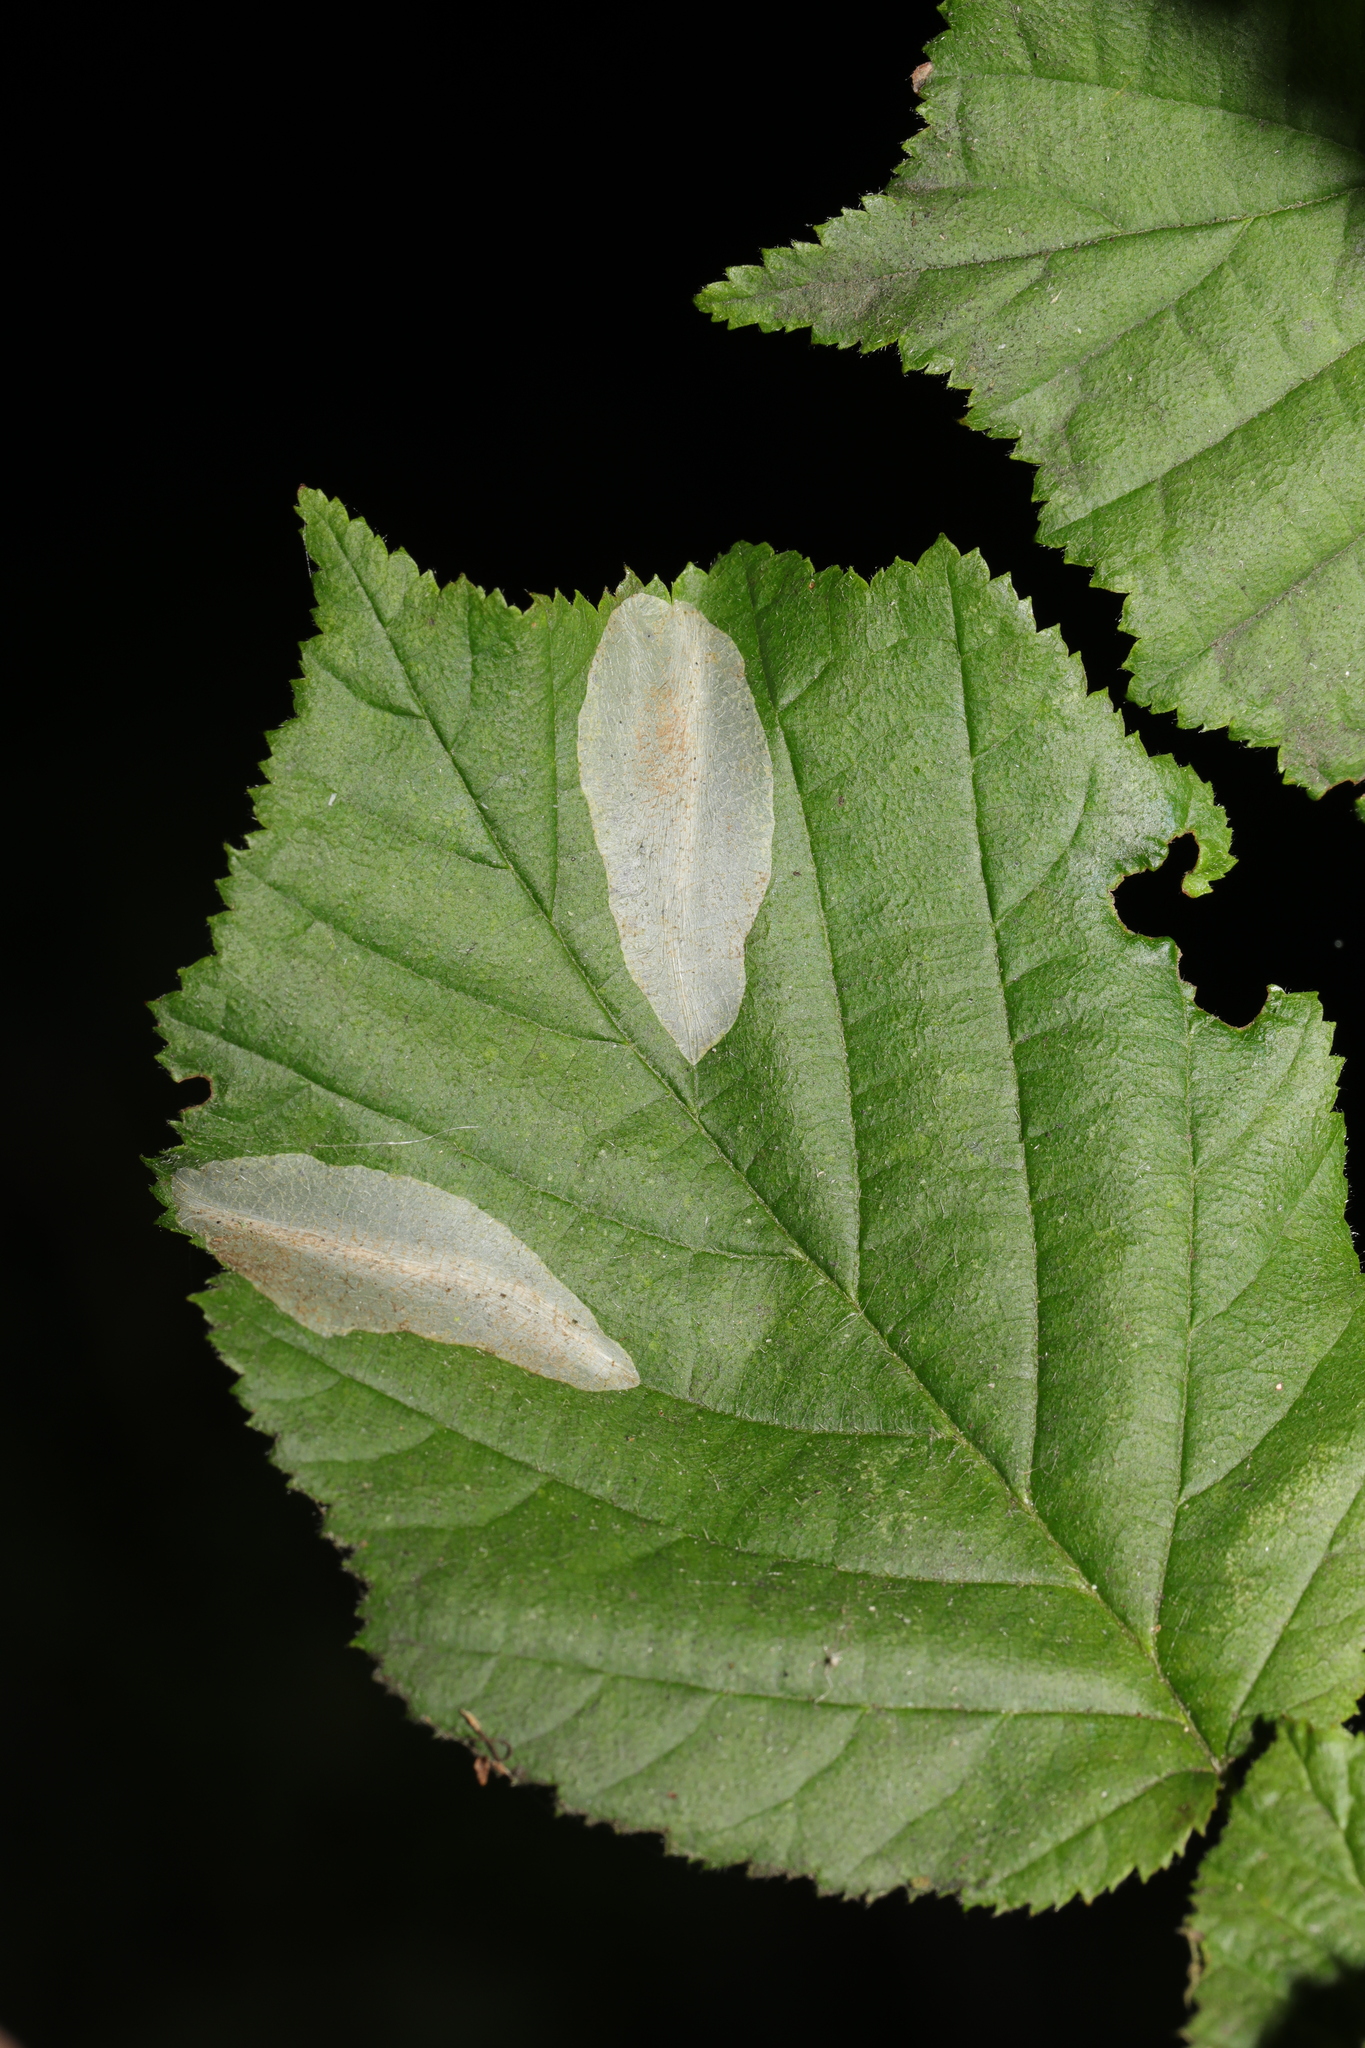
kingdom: Animalia
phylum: Arthropoda
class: Insecta
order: Lepidoptera
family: Gracillariidae
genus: Phyllonorycter
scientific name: Phyllonorycter coryli
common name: Nut-leaf blister moth
